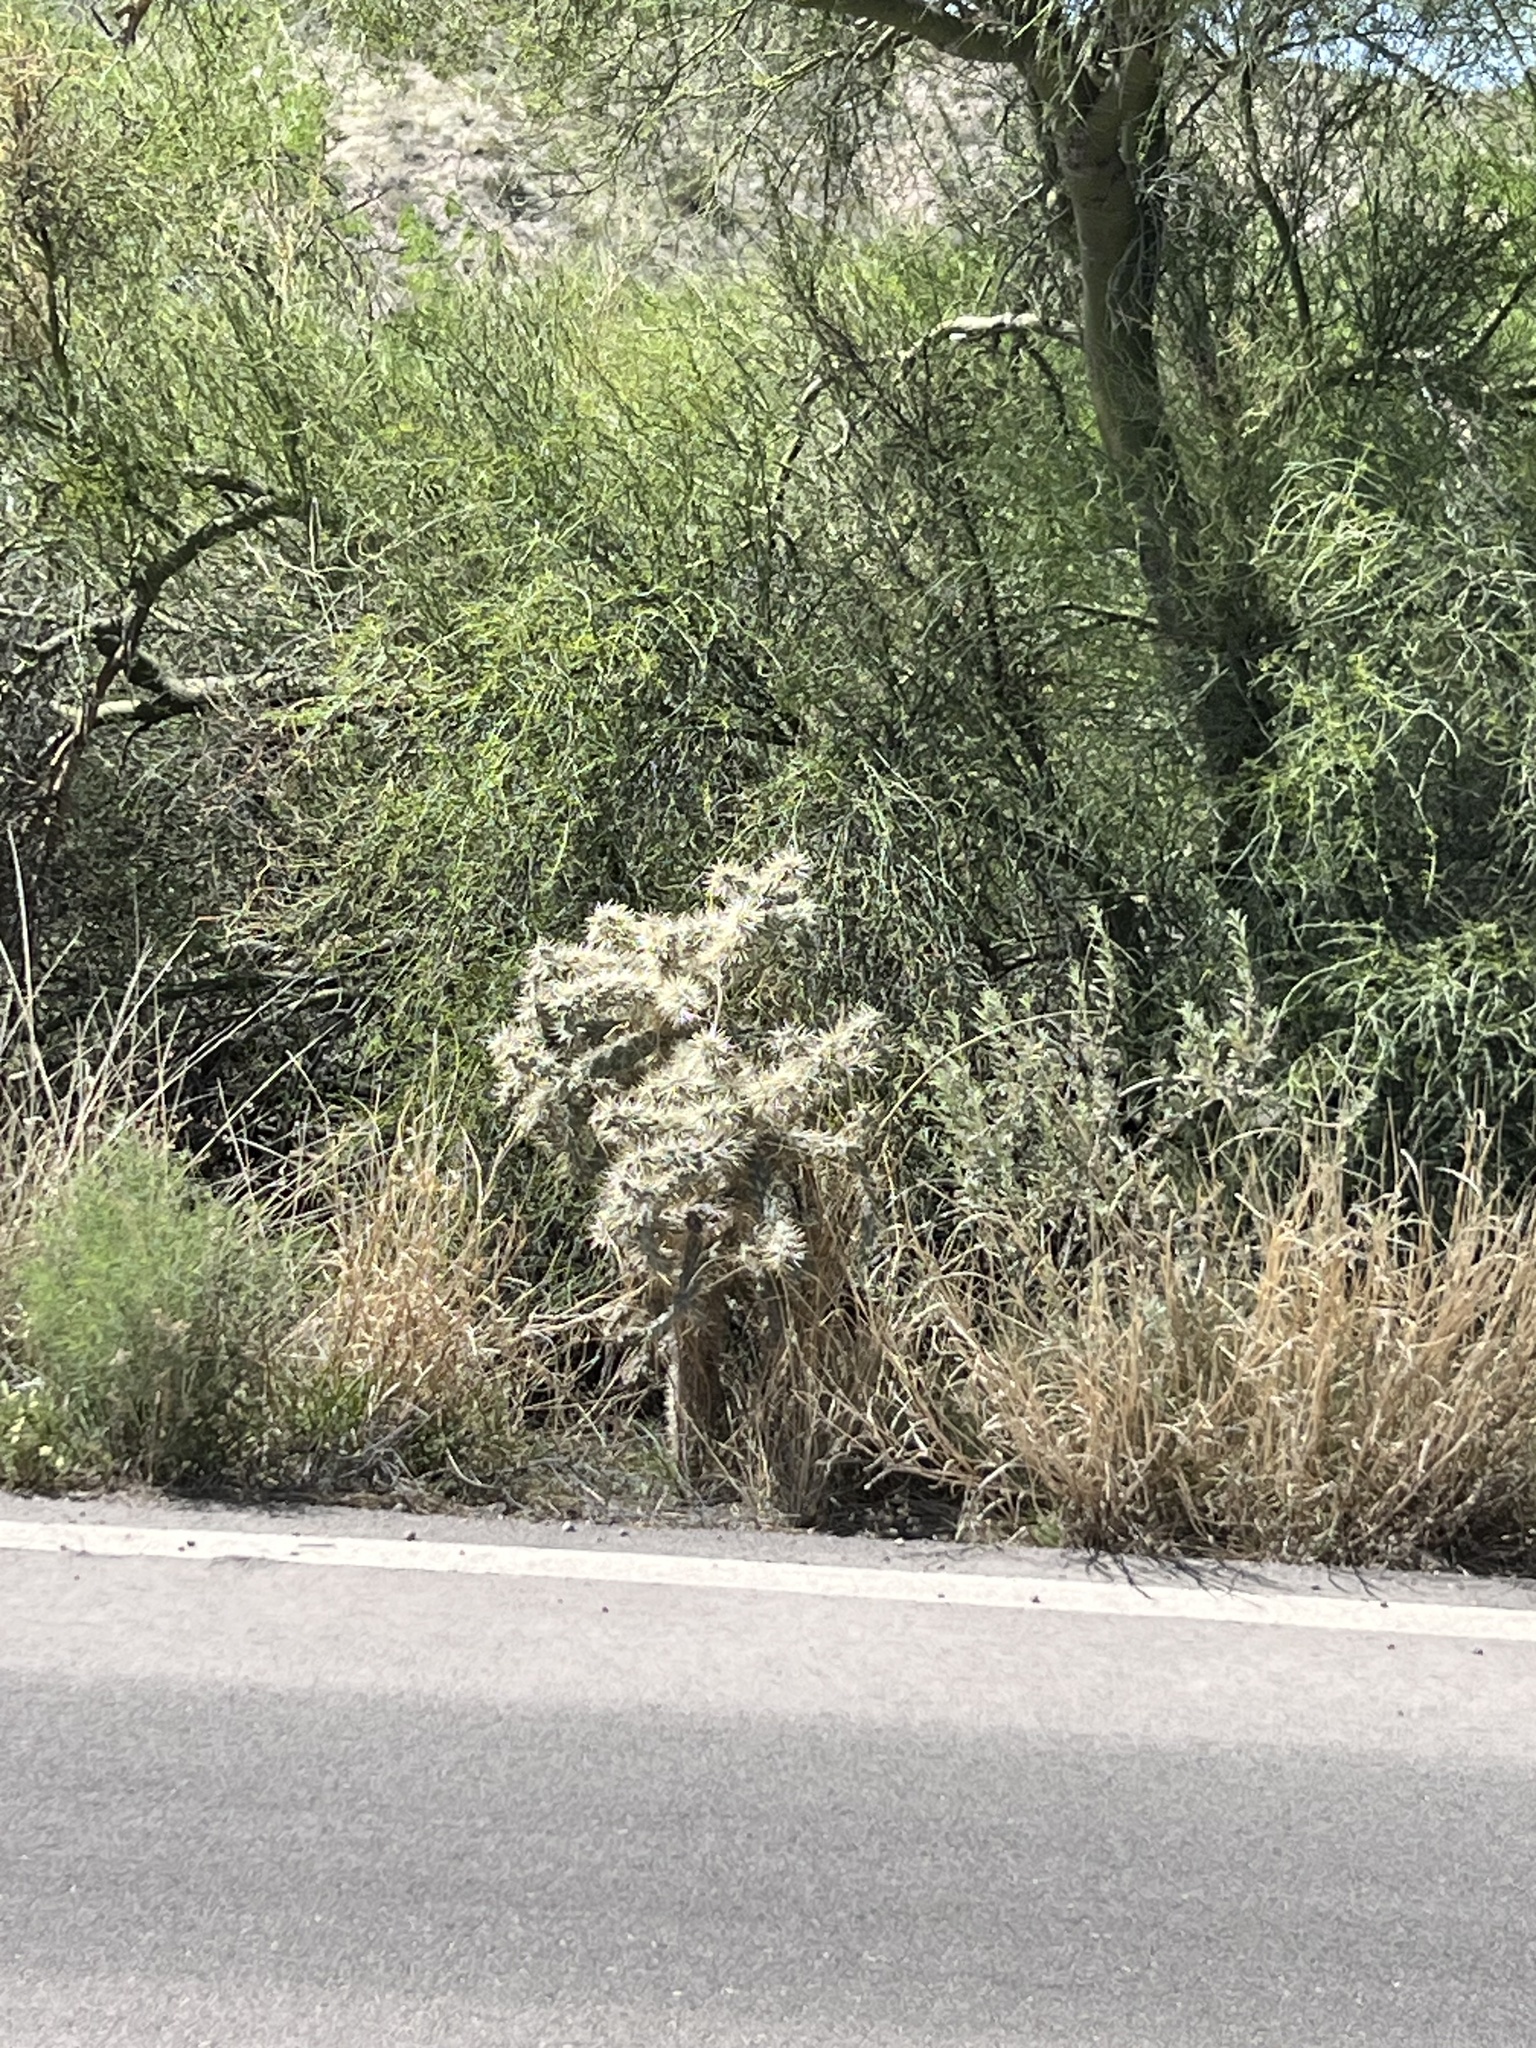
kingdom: Plantae
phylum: Tracheophyta
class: Magnoliopsida
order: Caryophyllales
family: Cactaceae
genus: Cylindropuntia
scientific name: Cylindropuntia fulgida
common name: Jumping cholla
